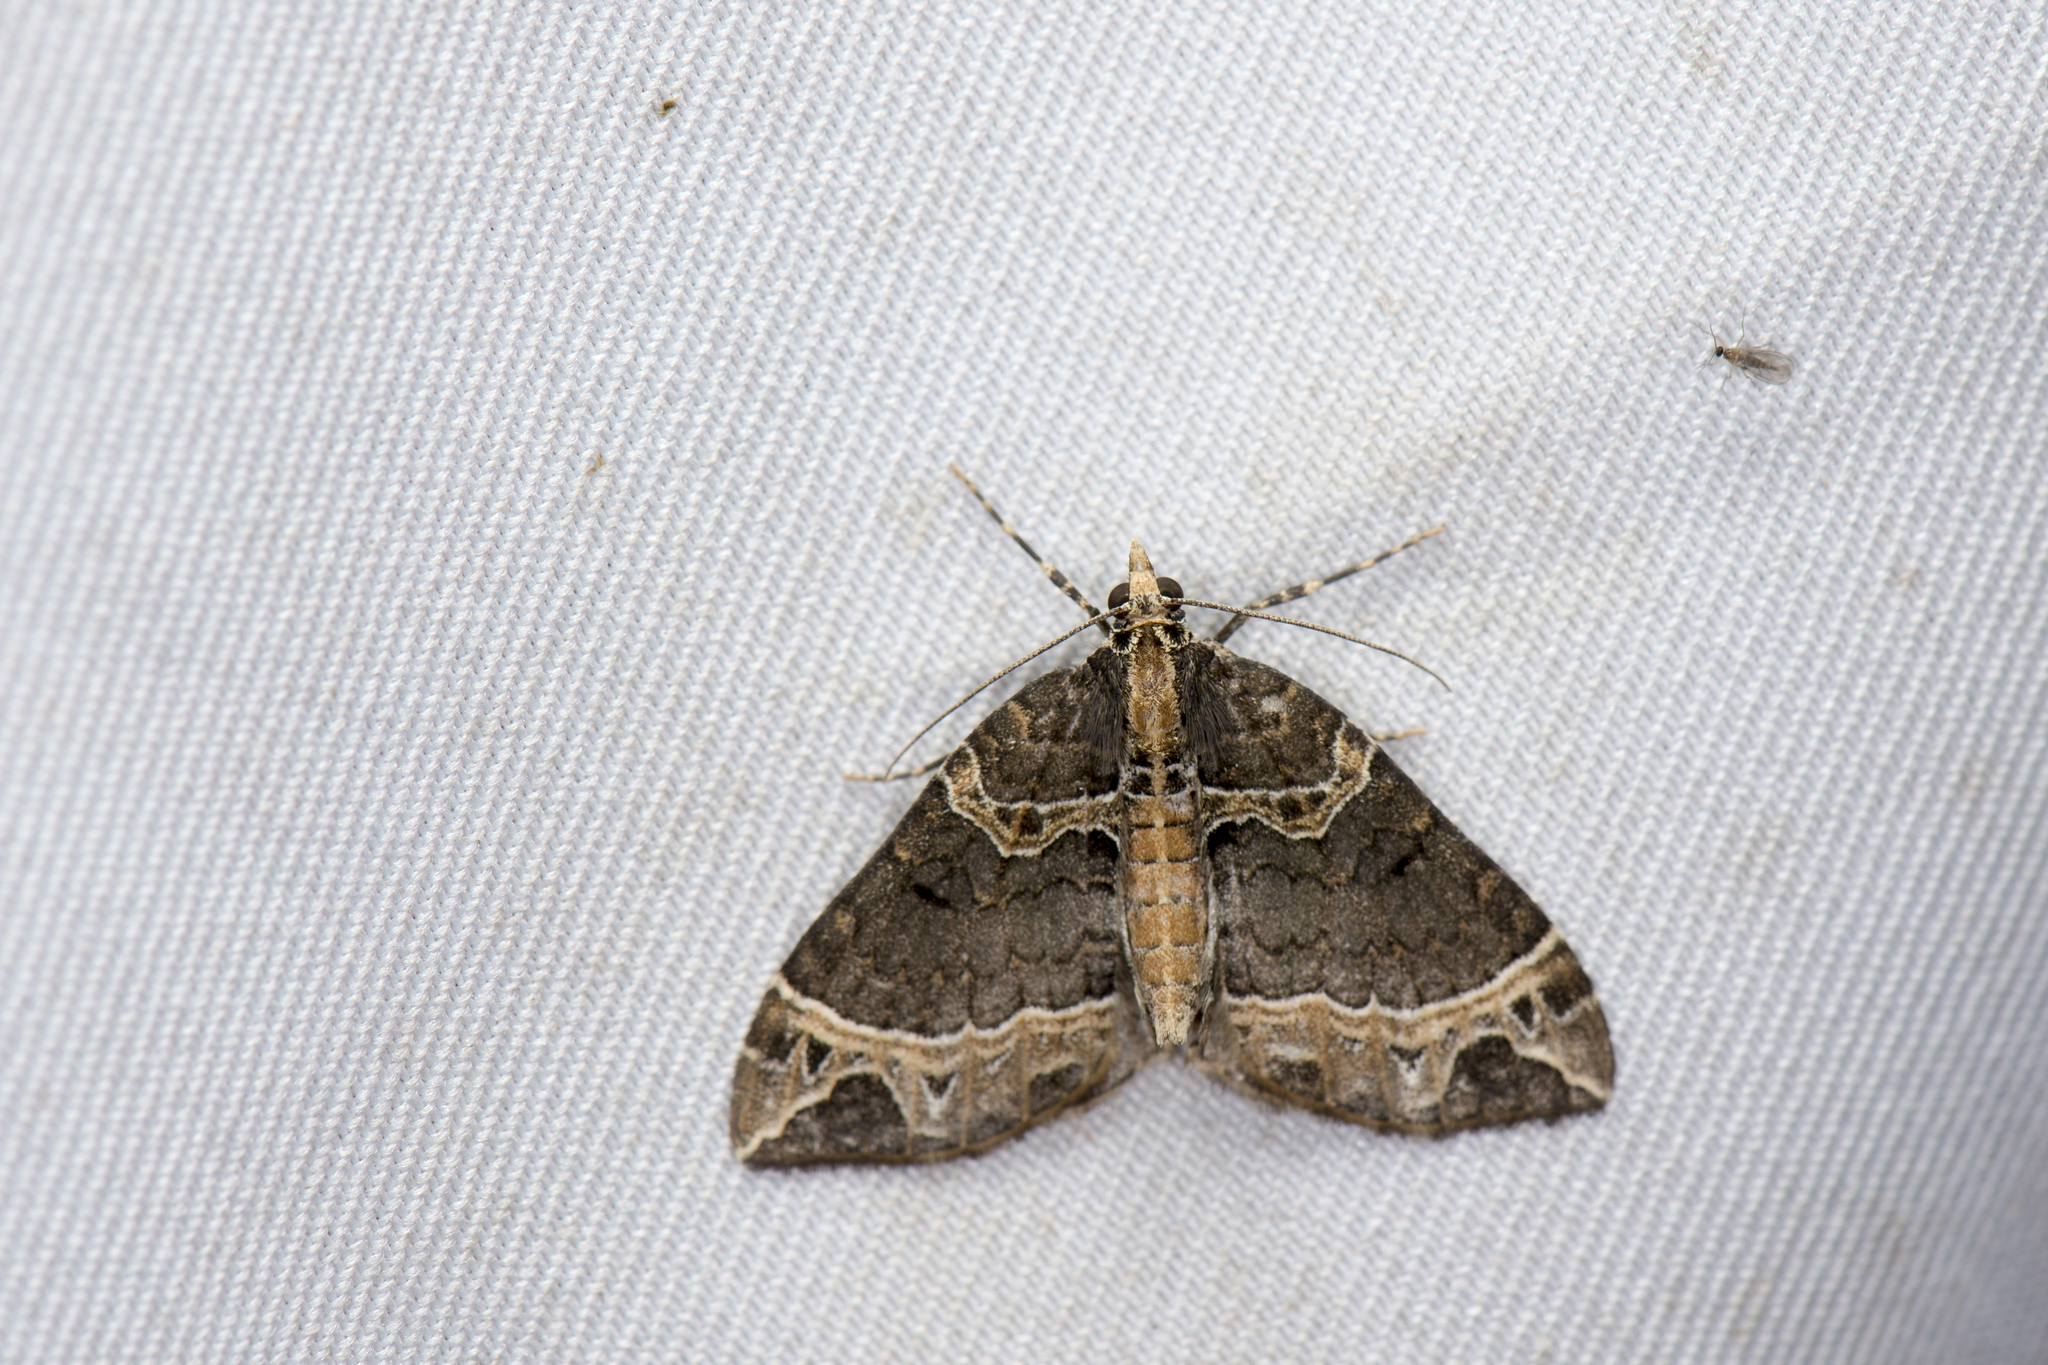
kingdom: Animalia
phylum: Arthropoda
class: Insecta
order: Lepidoptera
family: Geometridae
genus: Ecliptopera
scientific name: Ecliptopera umbrosaria
